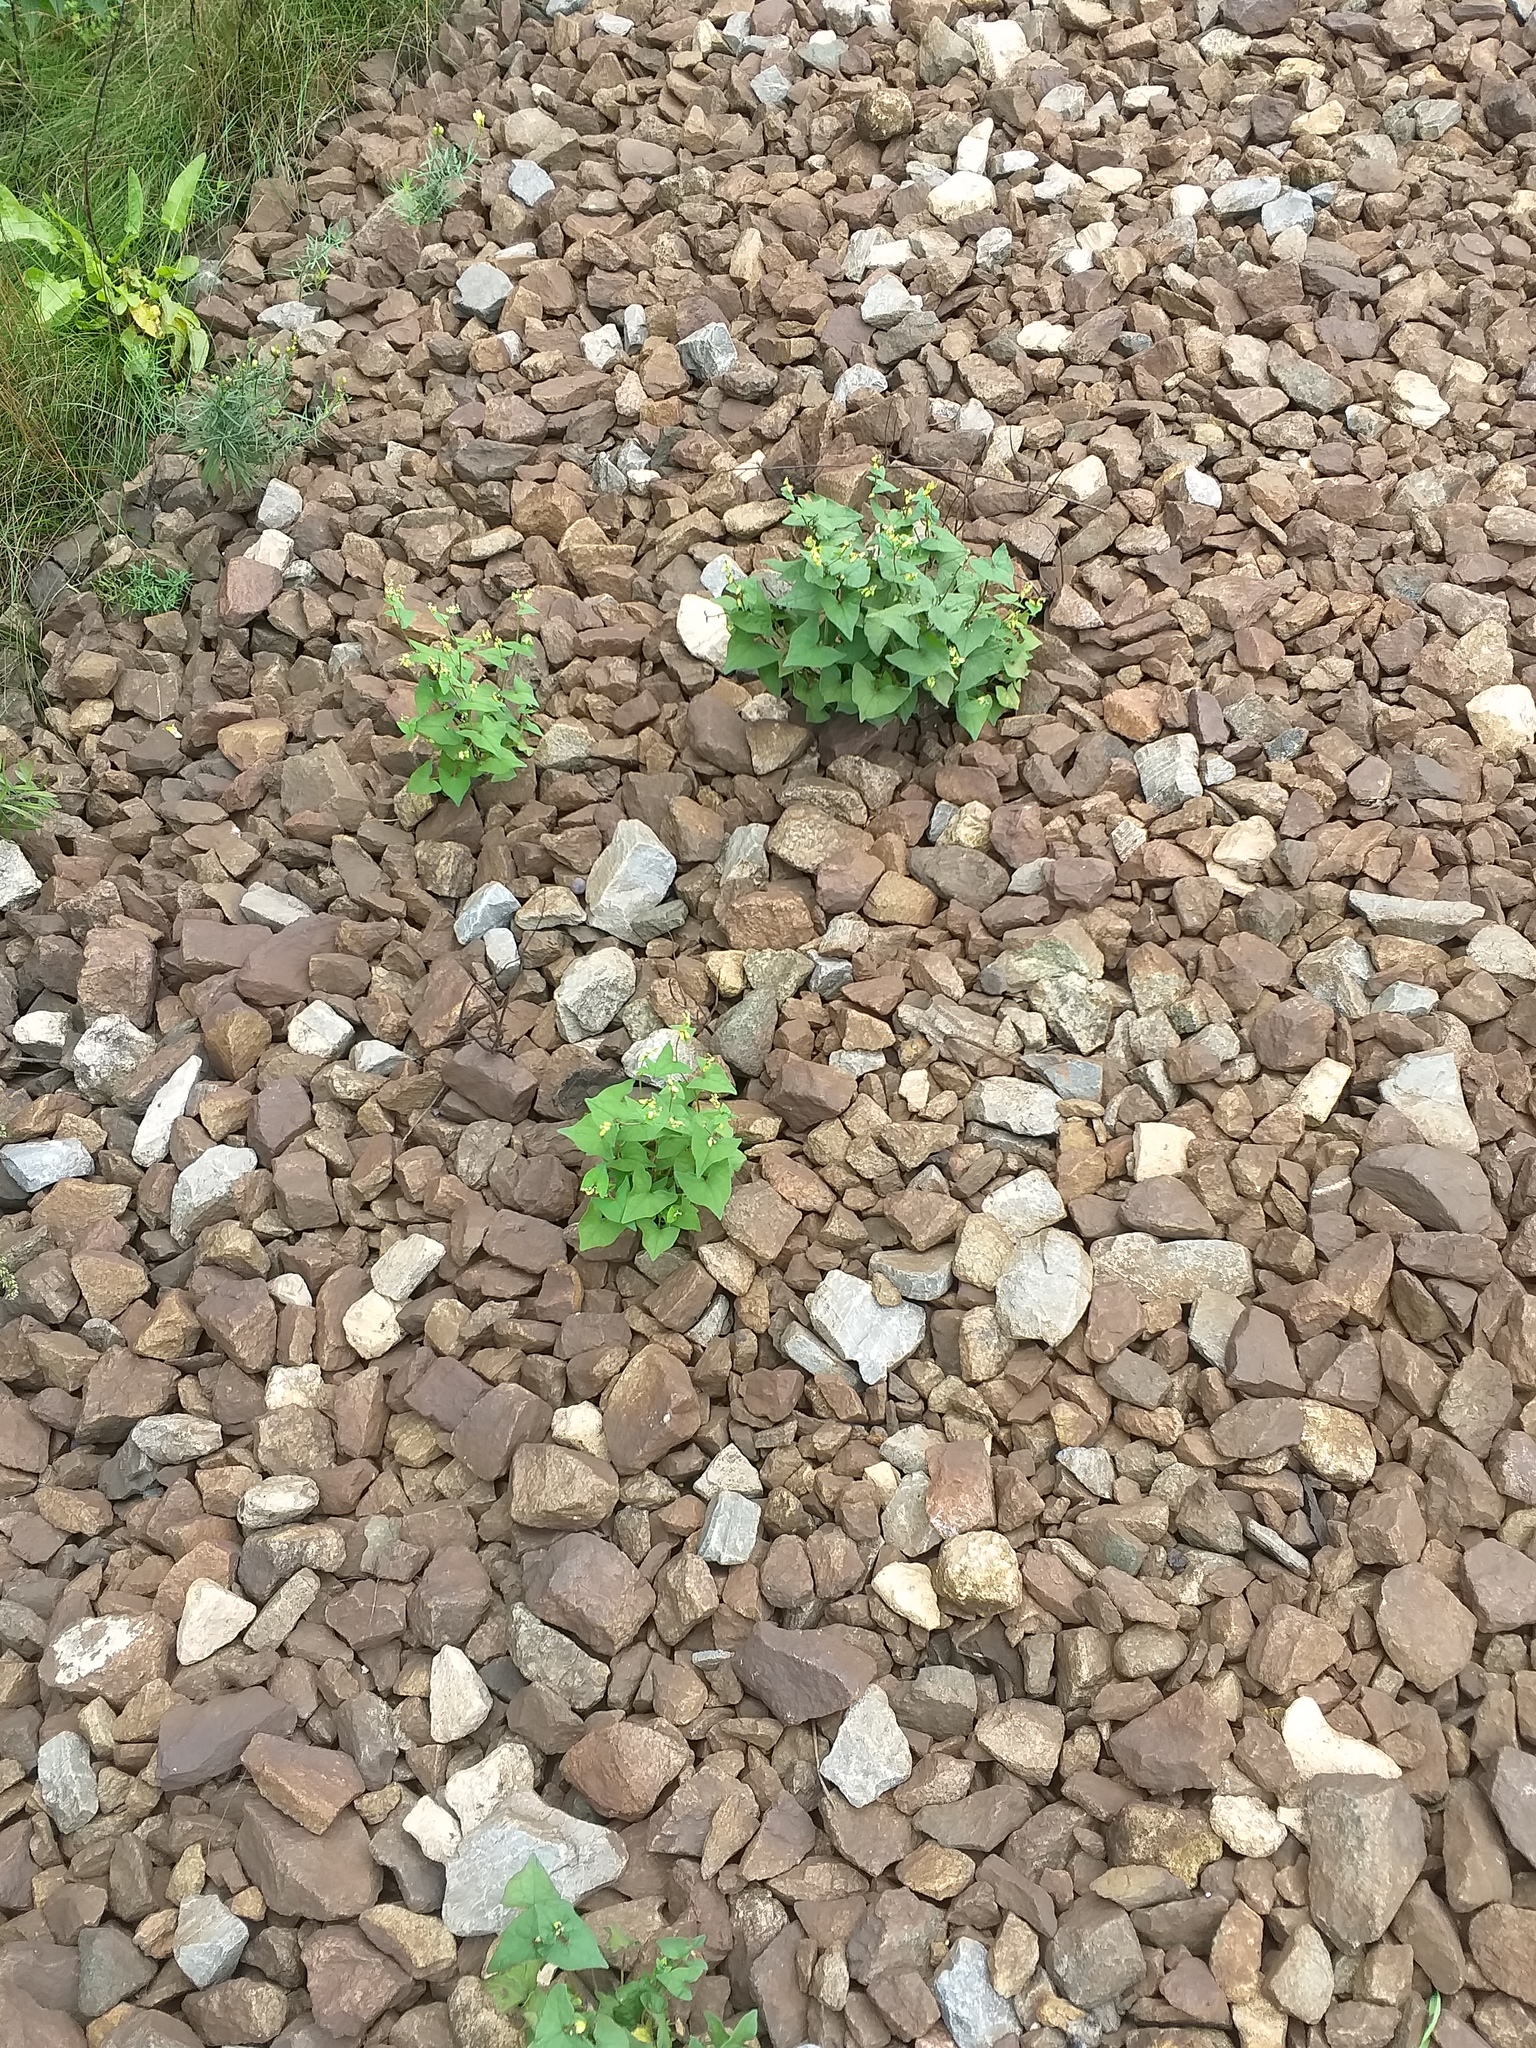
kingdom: Plantae
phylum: Tracheophyta
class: Magnoliopsida
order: Caryophyllales
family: Polygonaceae
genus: Fagopyrum
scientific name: Fagopyrum tataricum
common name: Green buckwheat
